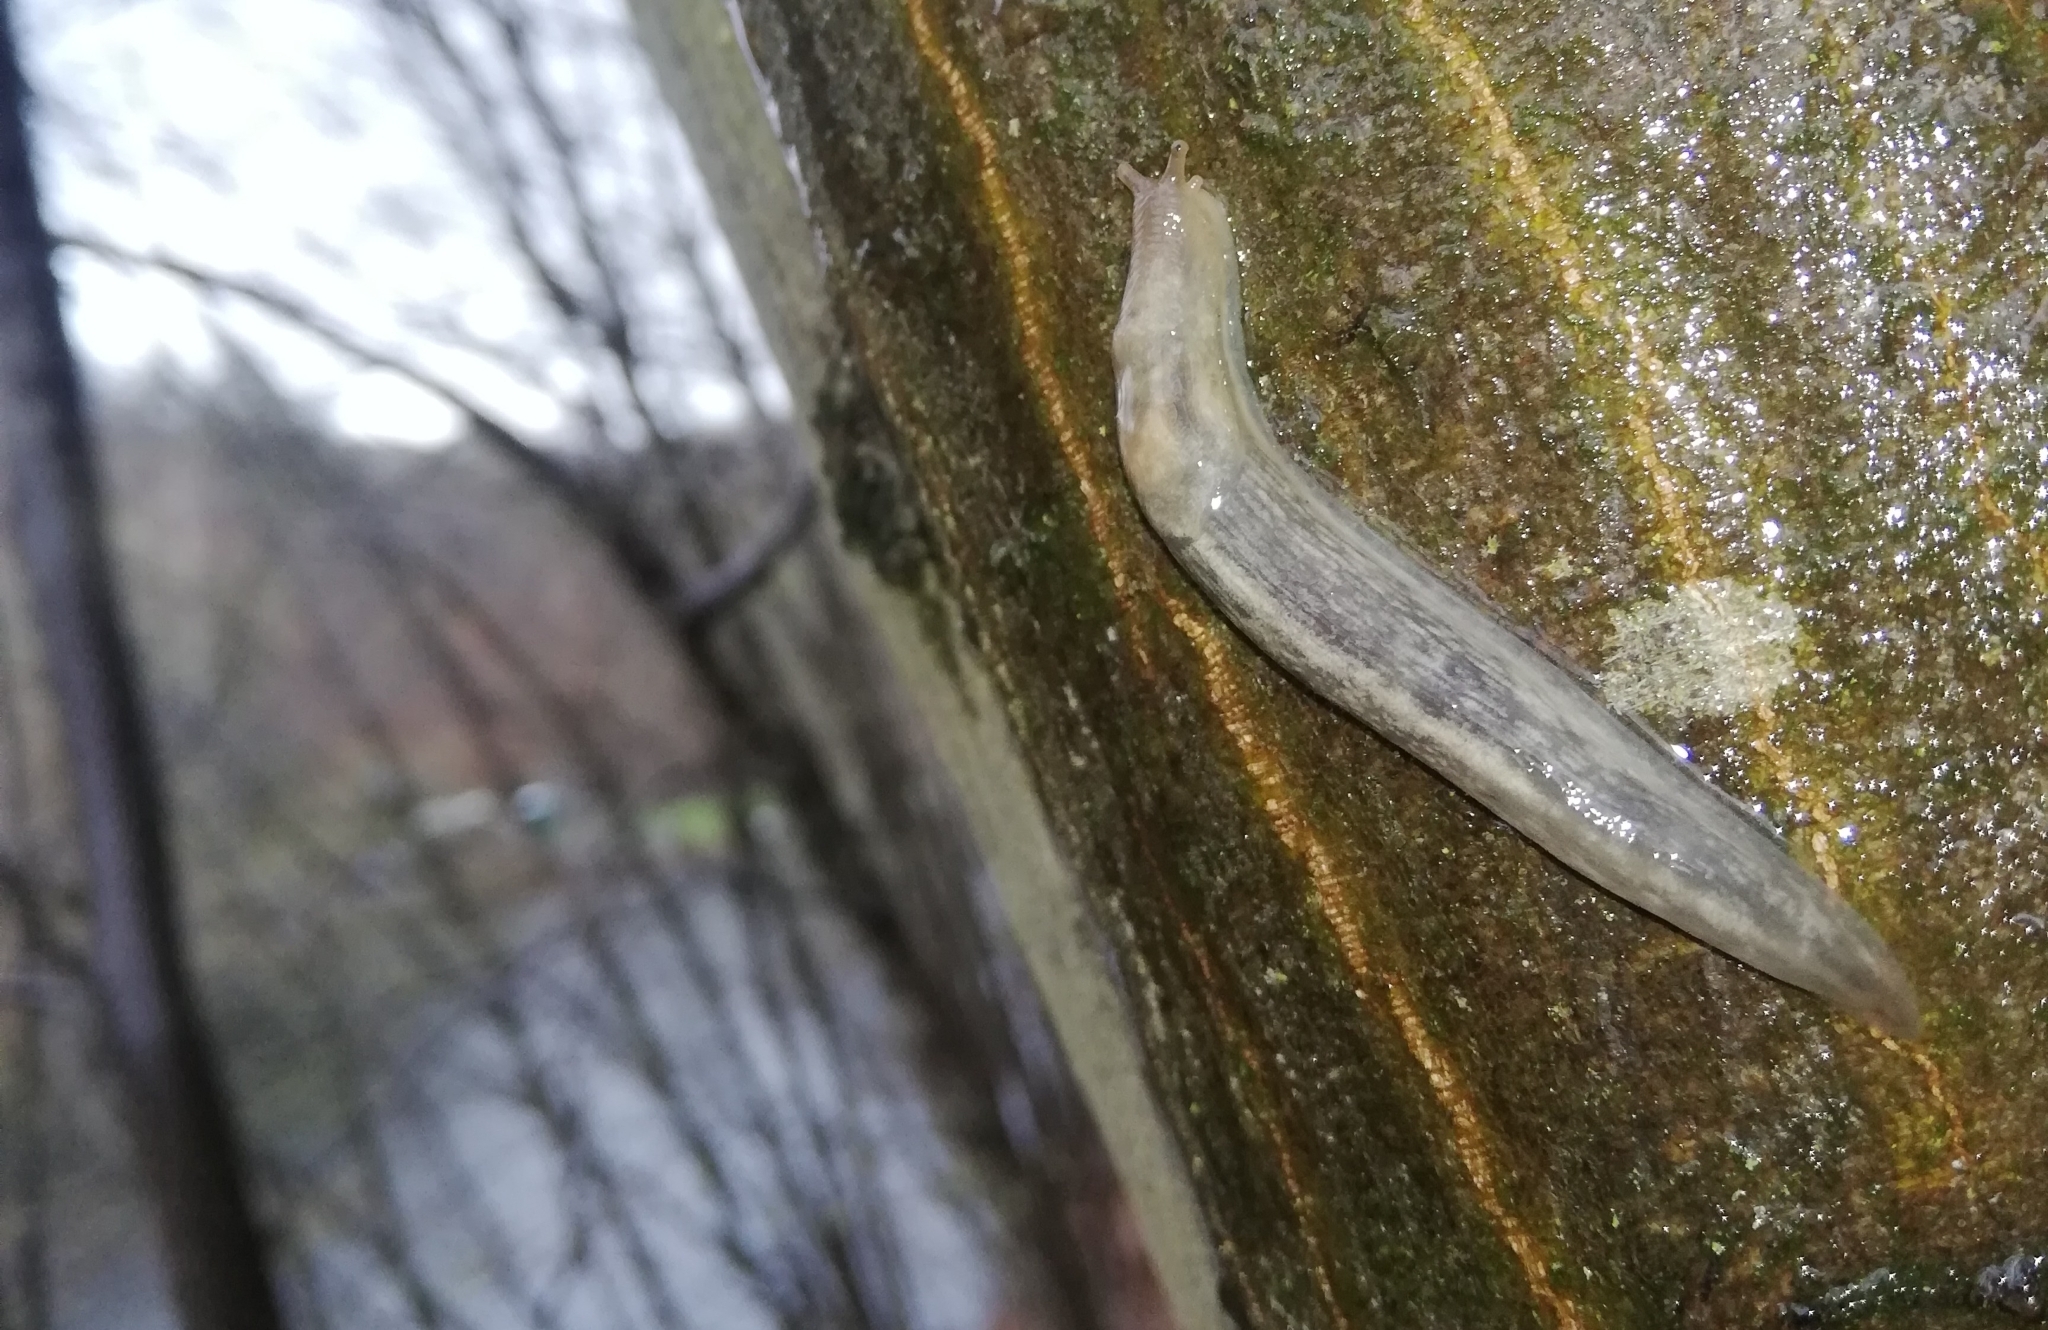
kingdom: Animalia
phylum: Mollusca
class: Gastropoda
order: Stylommatophora
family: Limacidae
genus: Lehmannia
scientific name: Lehmannia marginata
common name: Tree slug
